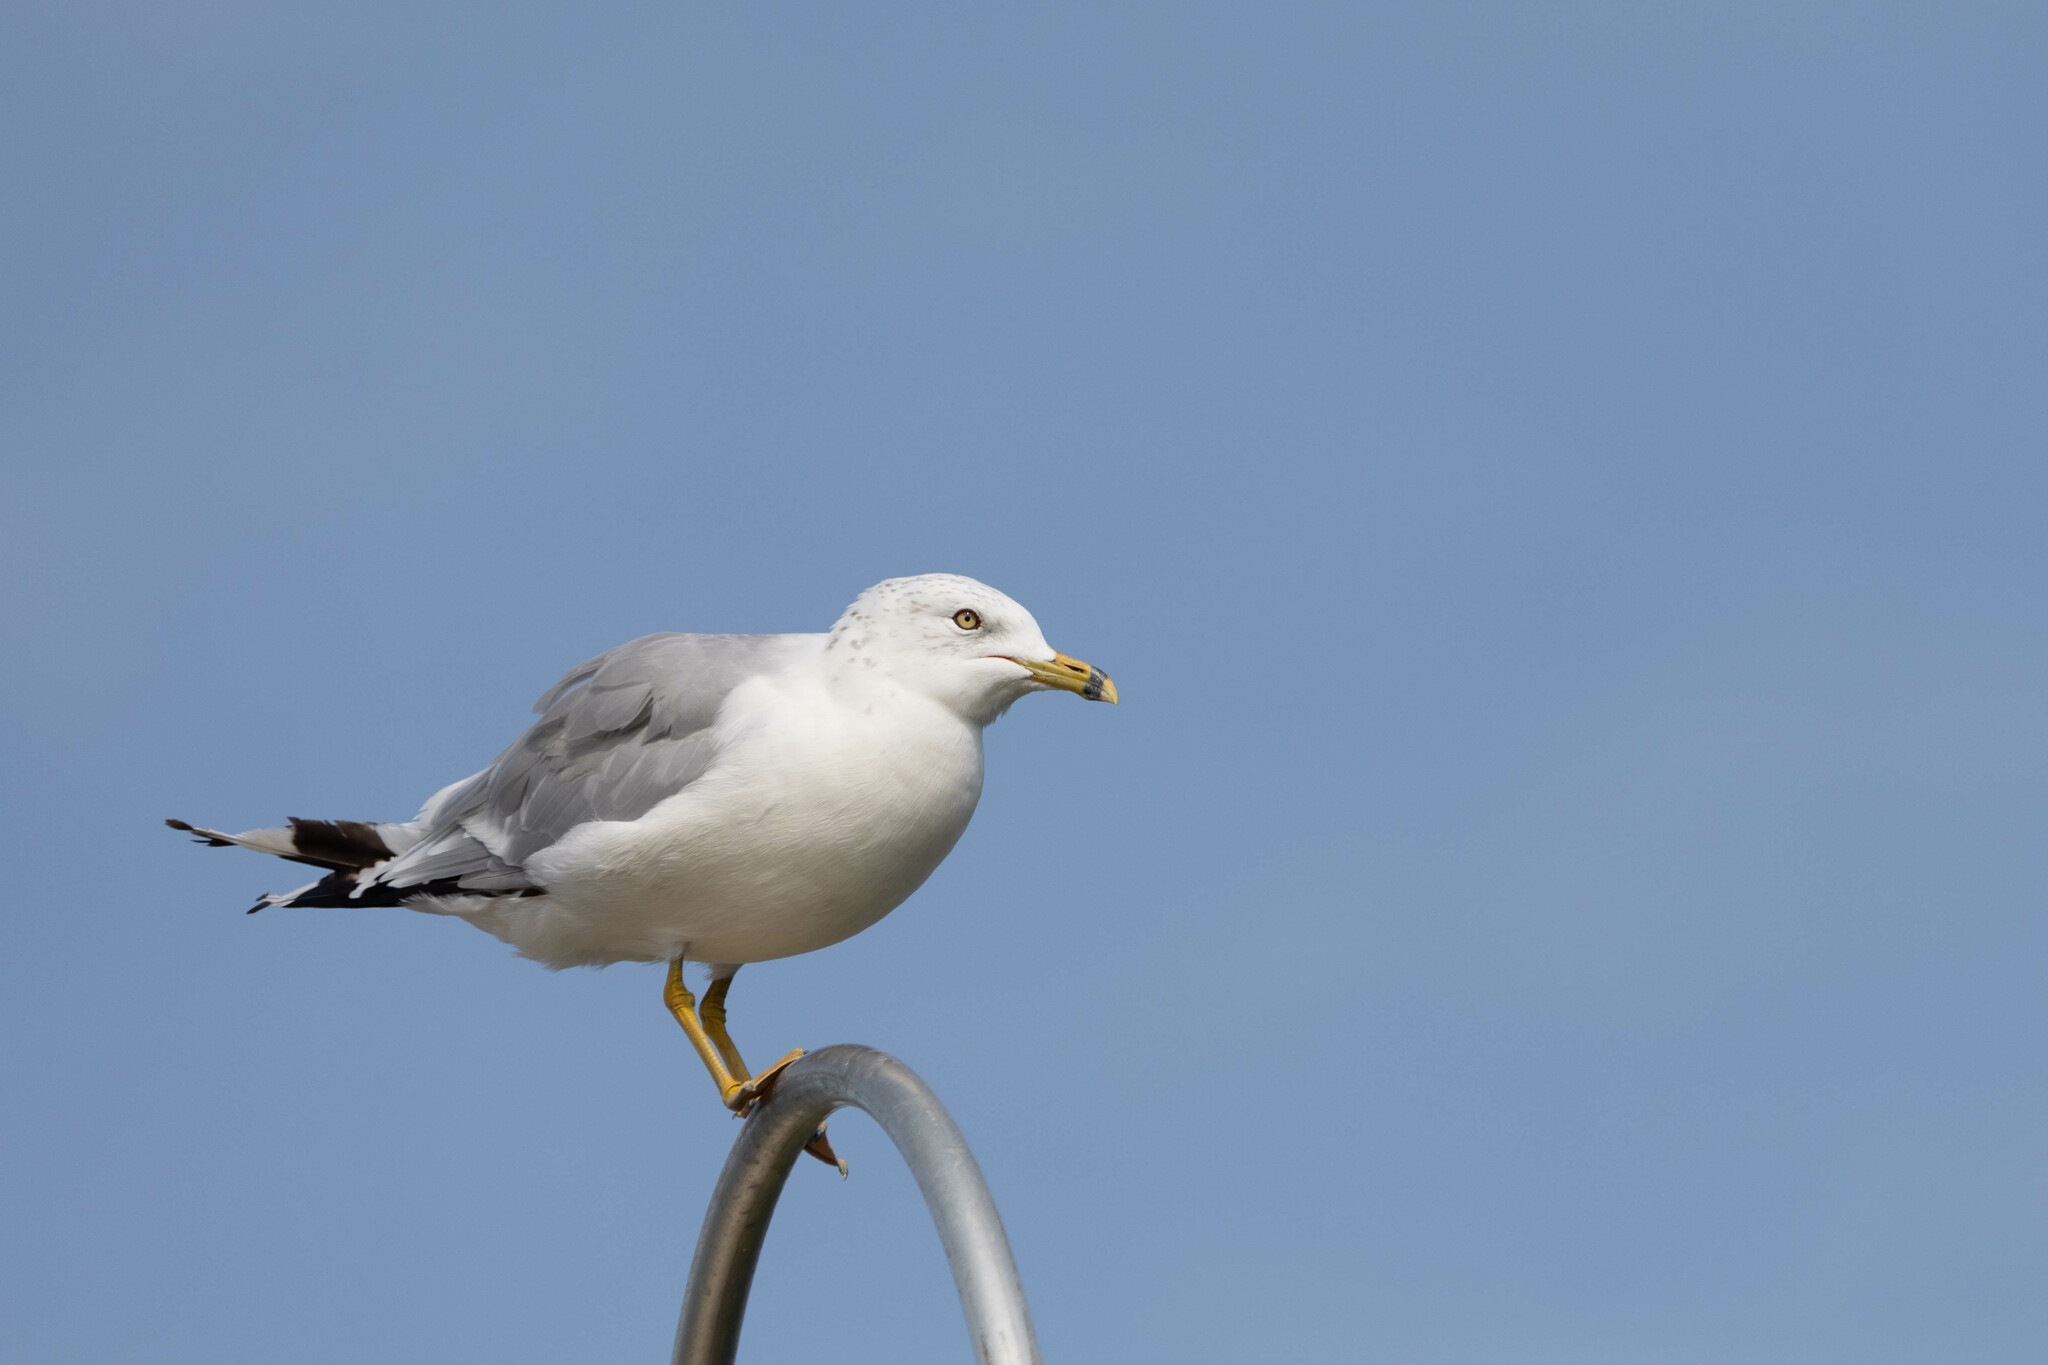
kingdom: Animalia
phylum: Chordata
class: Aves
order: Charadriiformes
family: Laridae
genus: Larus
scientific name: Larus delawarensis
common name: Ring-billed gull
